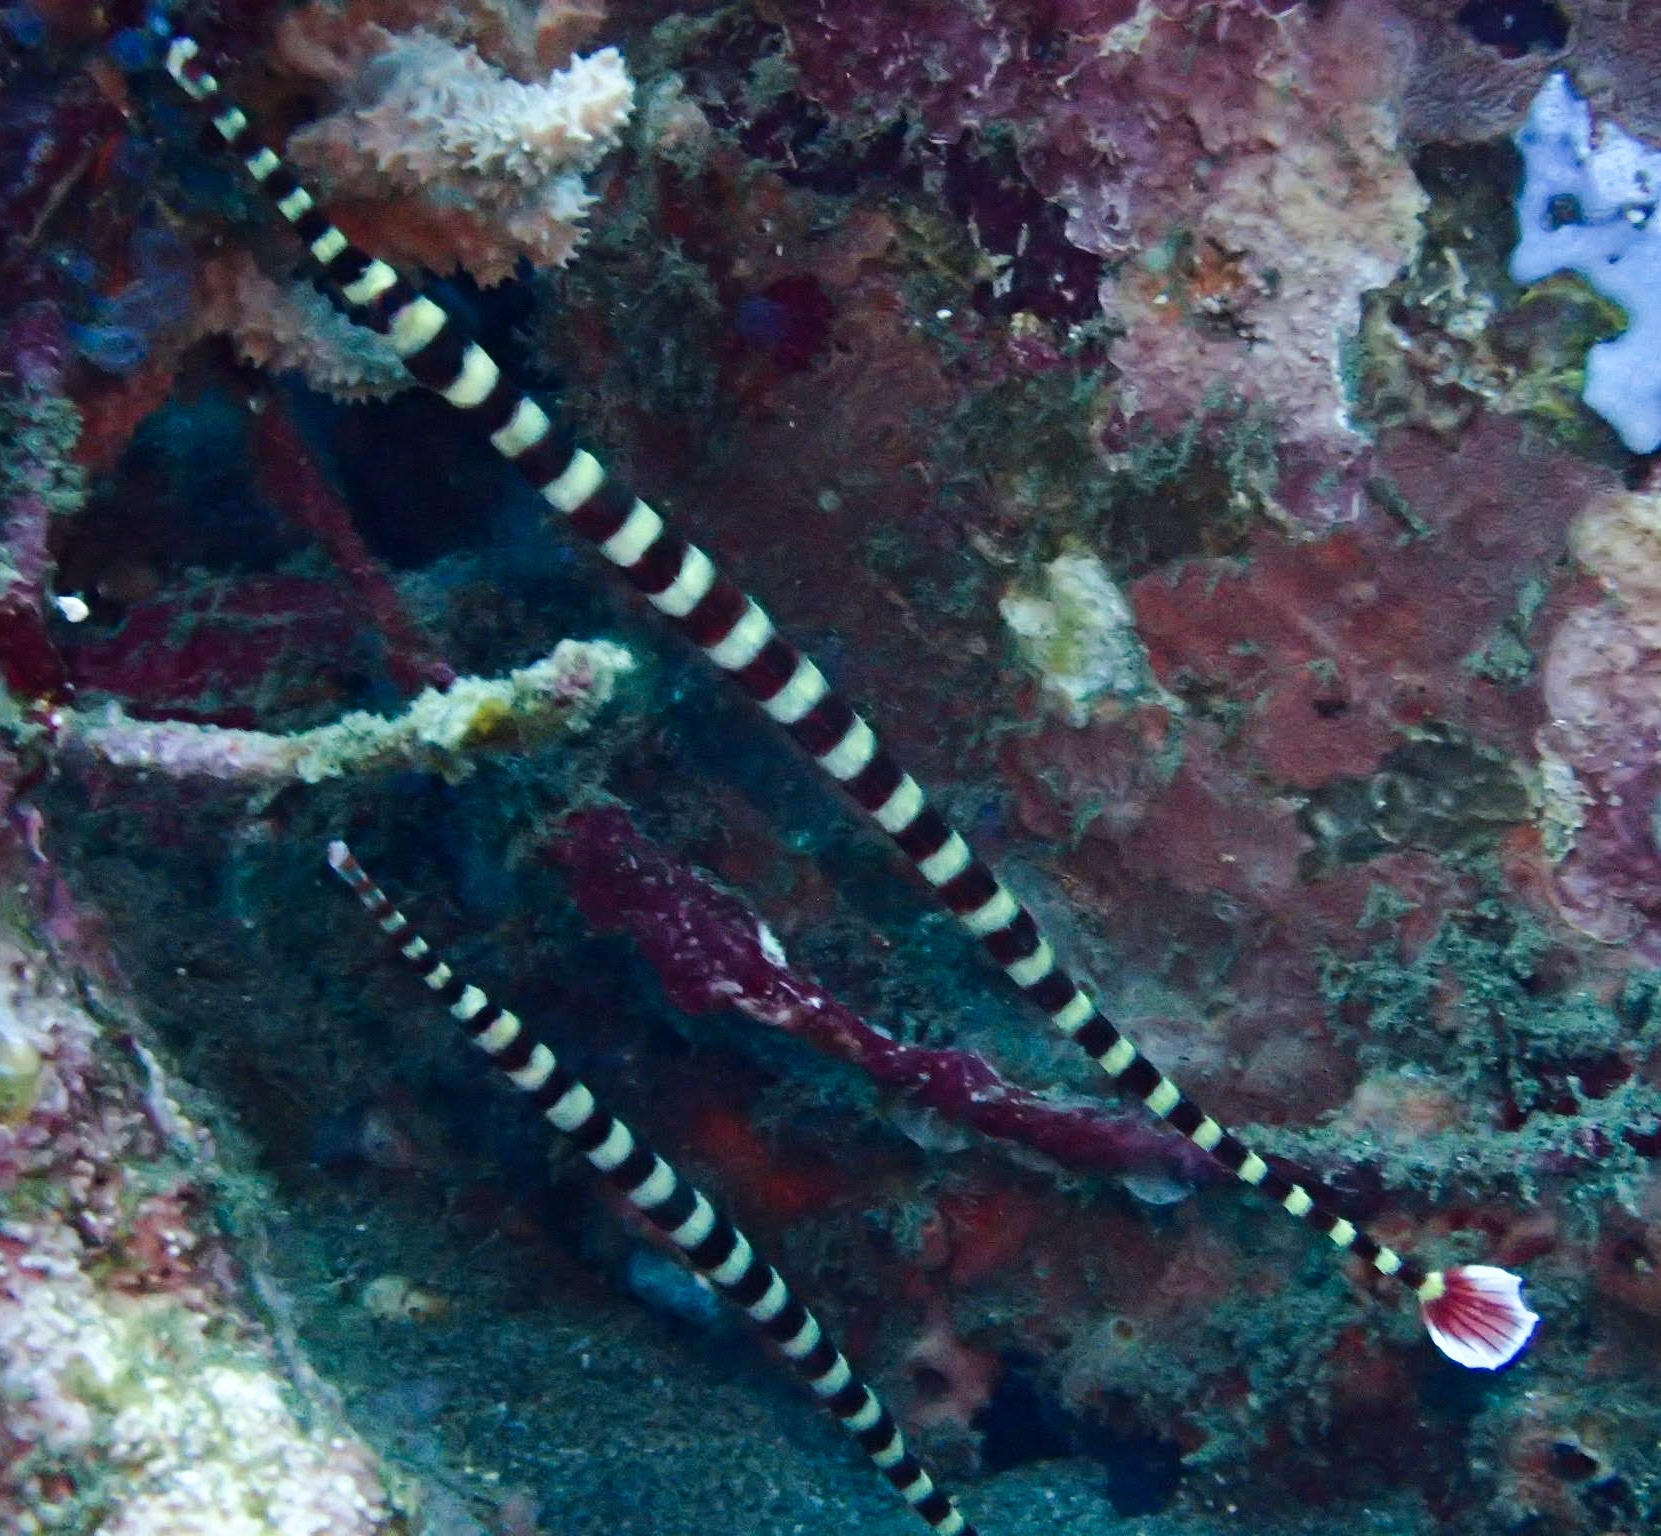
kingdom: Animalia
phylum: Chordata
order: Syngnathiformes
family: Syngnathidae
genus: Dunckerocampus
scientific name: Dunckerocampus naia
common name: Naia pipefish
